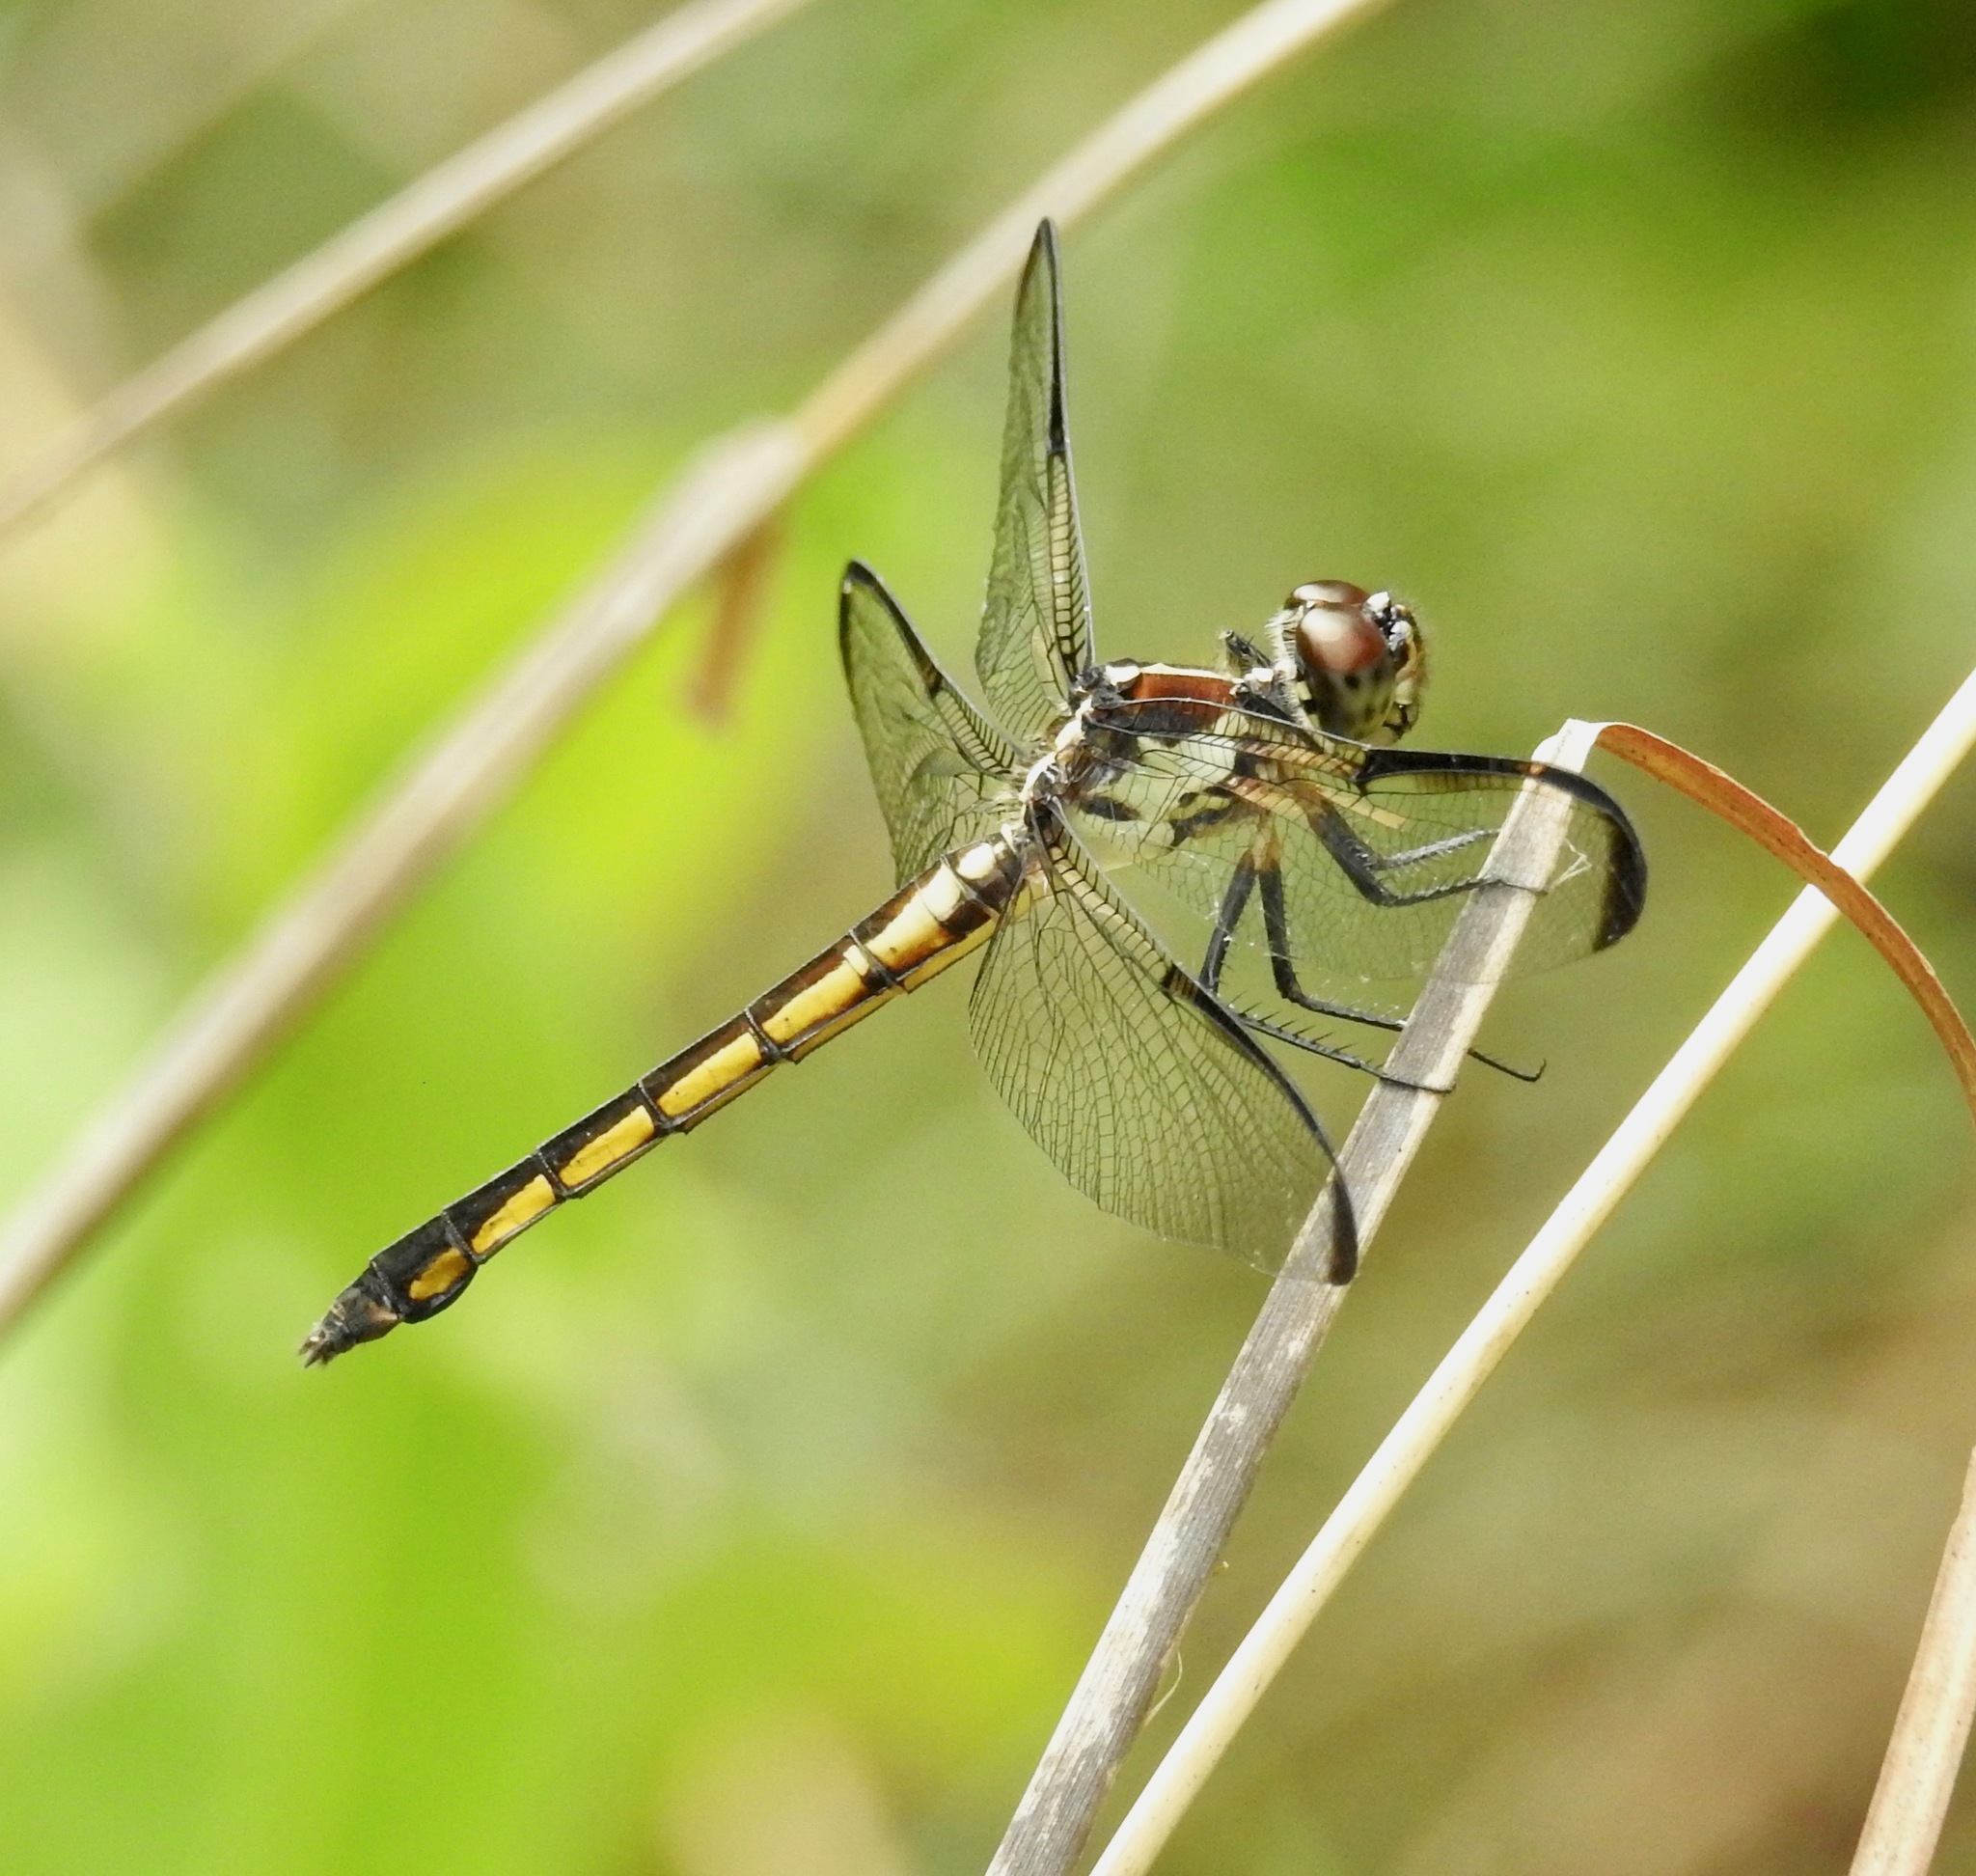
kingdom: Animalia
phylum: Arthropoda
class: Insecta
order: Odonata
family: Libellulidae
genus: Libellula
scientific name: Libellula axilena
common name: Bar-winged skimmer
